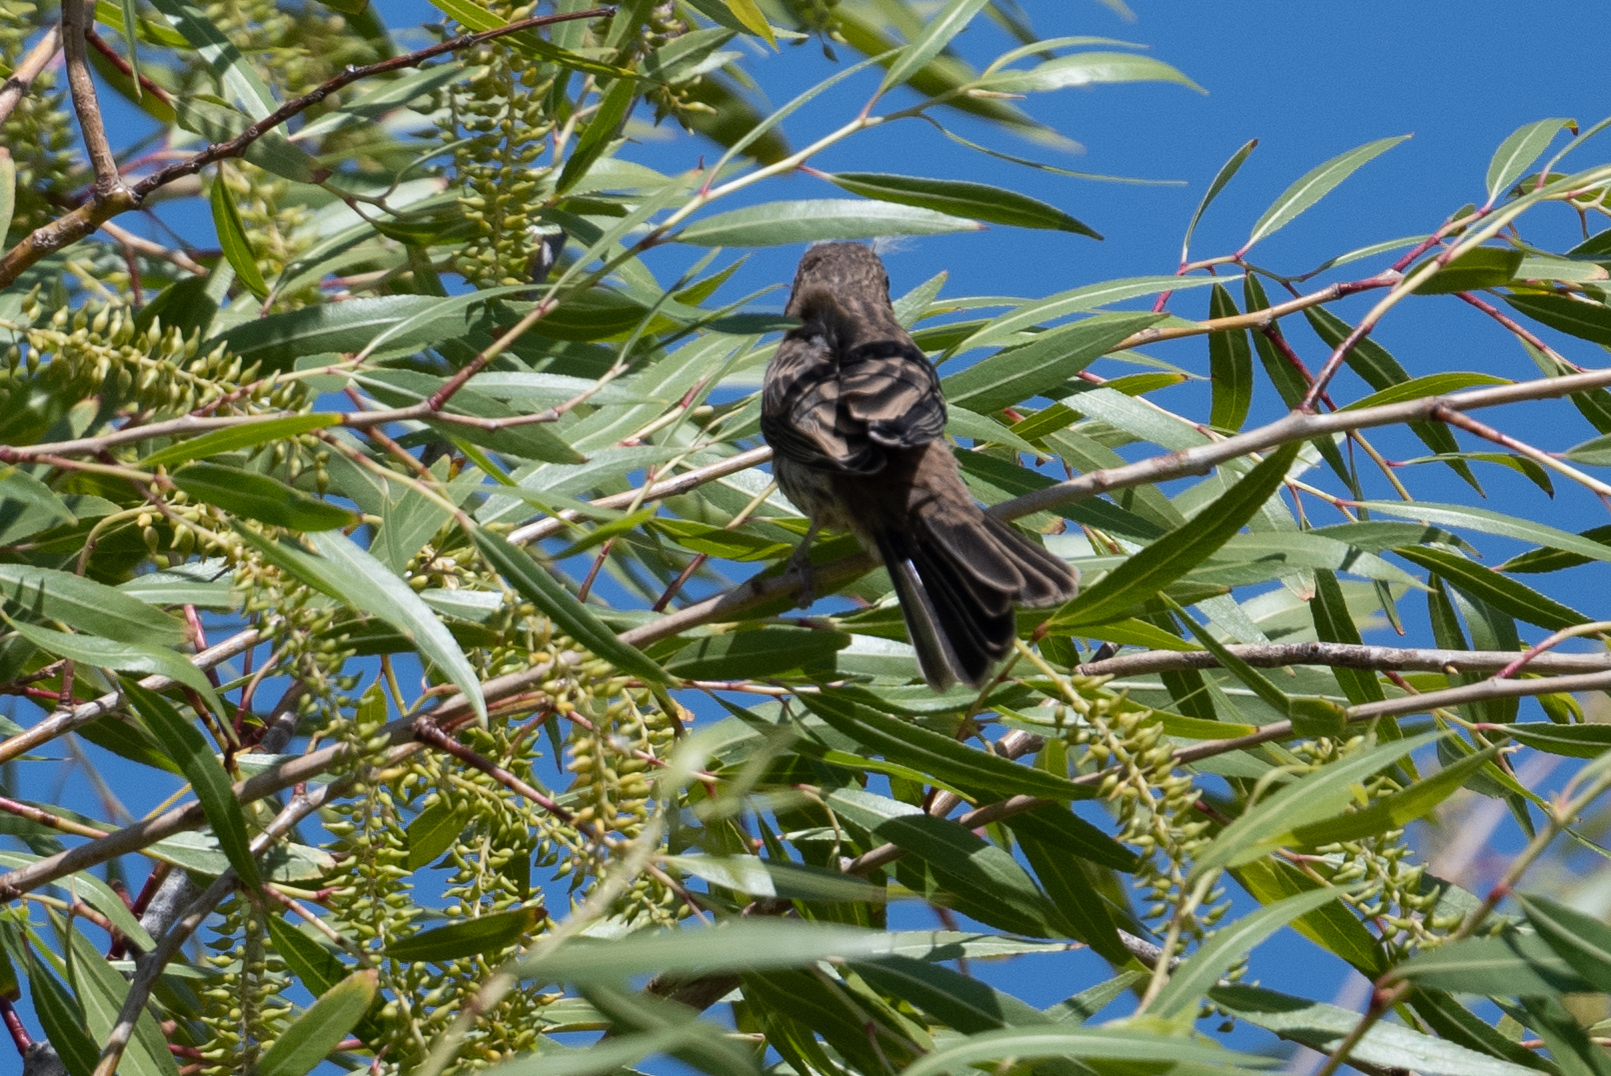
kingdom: Animalia
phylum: Chordata
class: Aves
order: Passeriformes
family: Fringillidae
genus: Haemorhous
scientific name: Haemorhous mexicanus
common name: House finch
